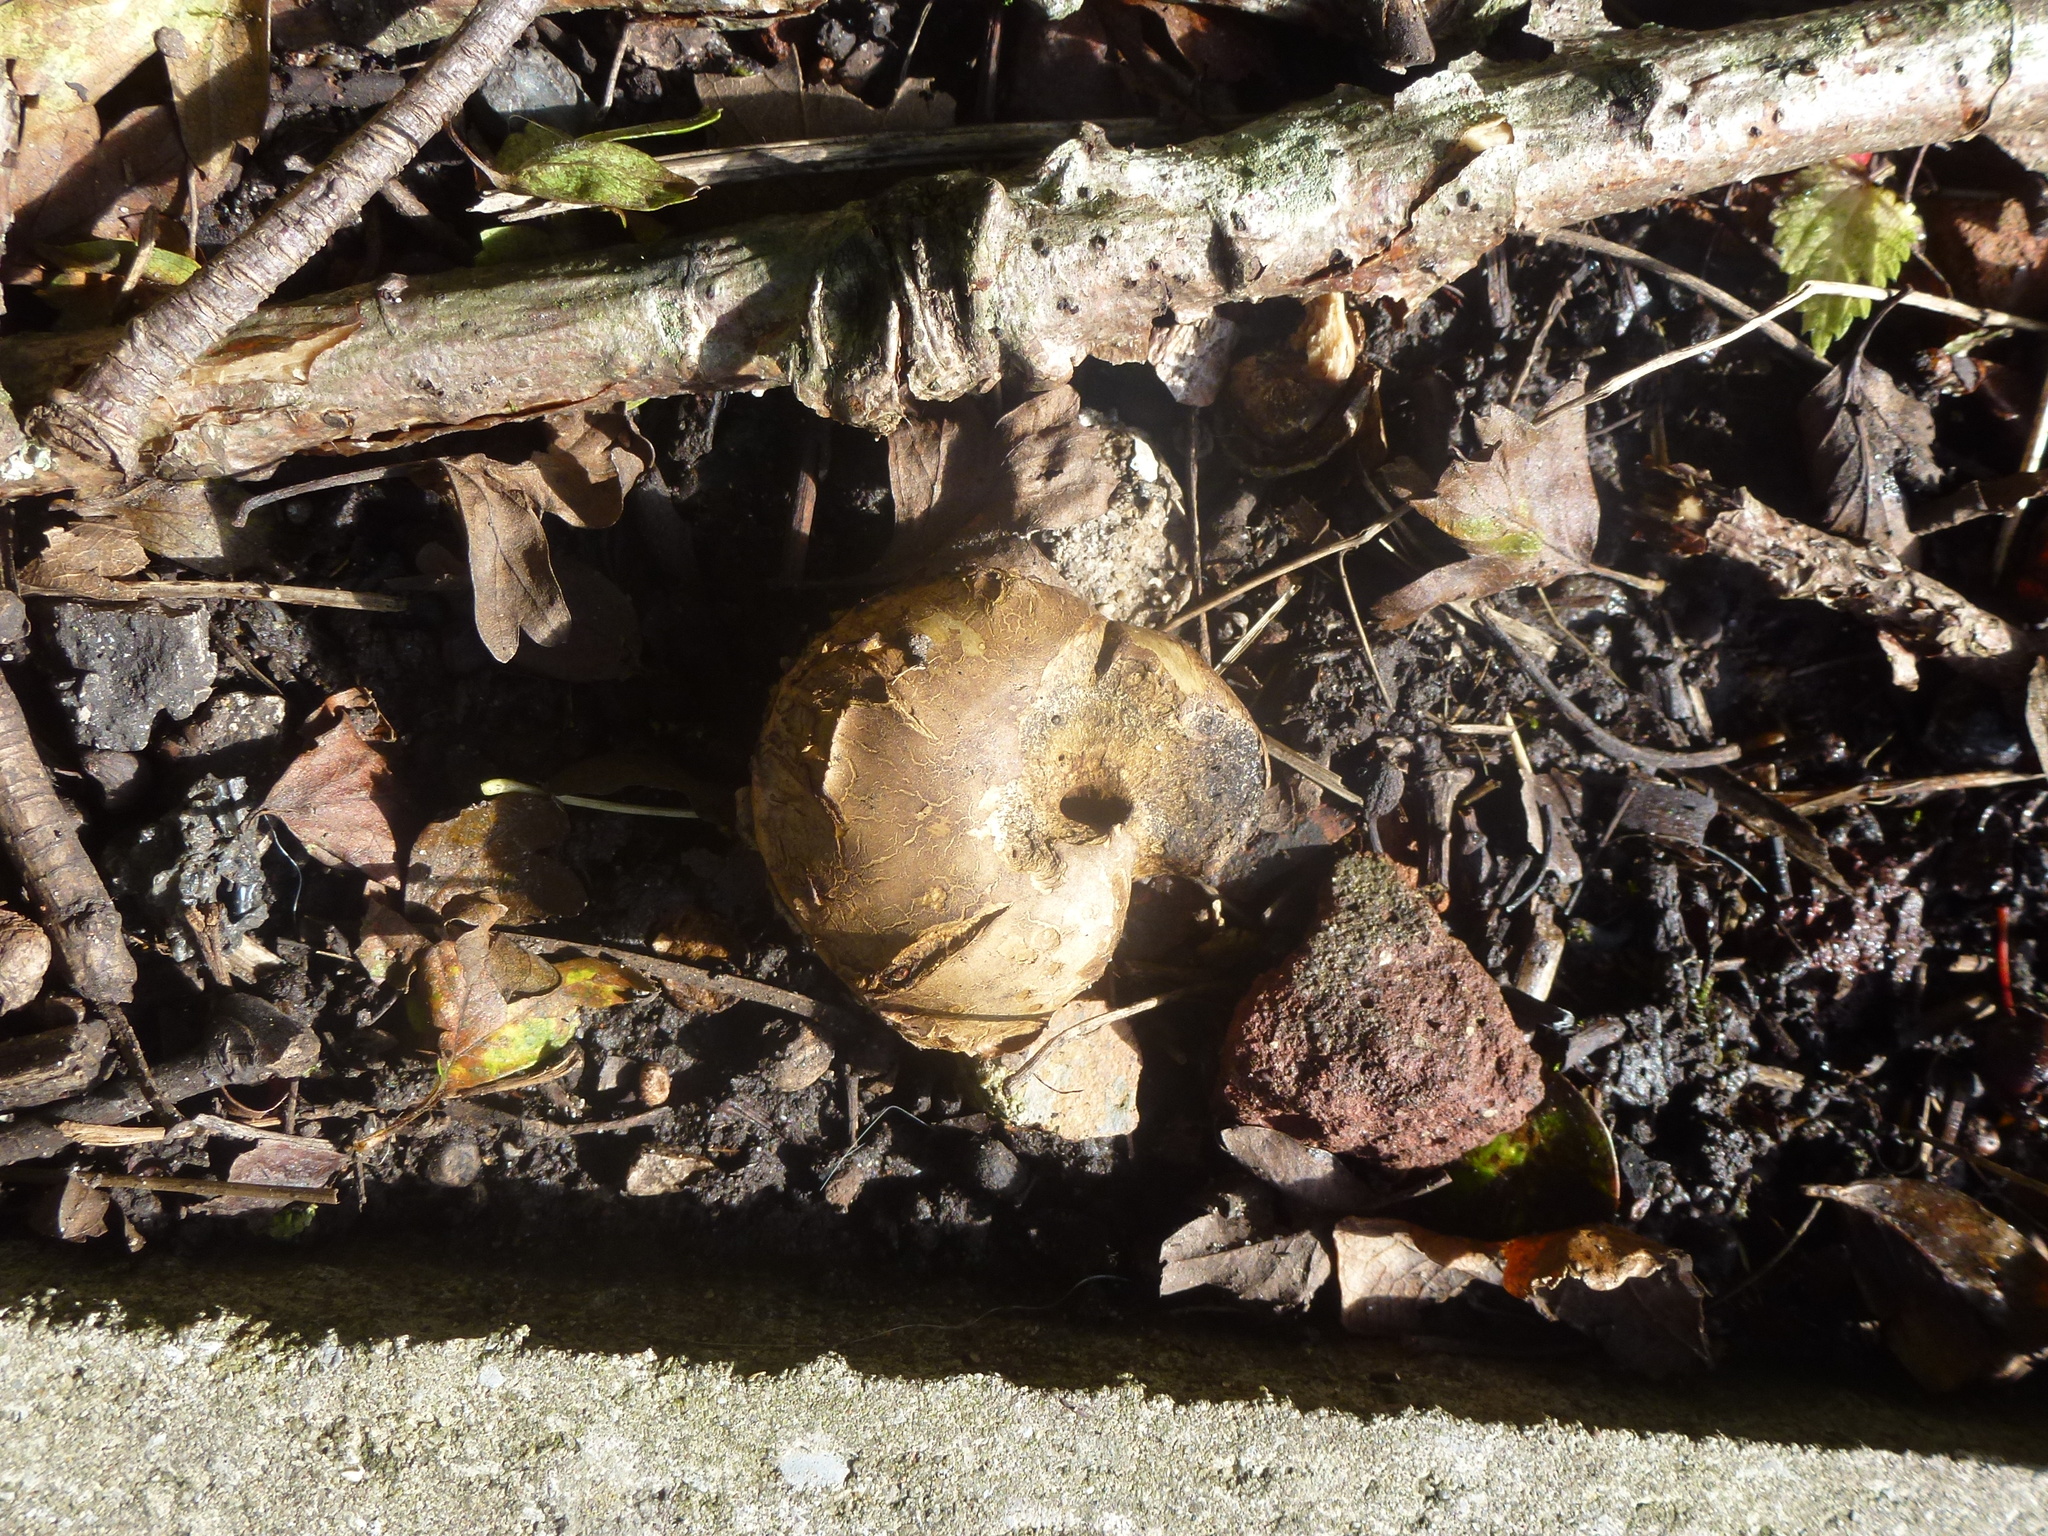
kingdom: Fungi
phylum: Basidiomycota
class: Agaricomycetes
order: Agaricales
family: Lycoperdaceae
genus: Apioperdon
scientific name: Apioperdon pyriforme
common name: Pear-shaped puffball
